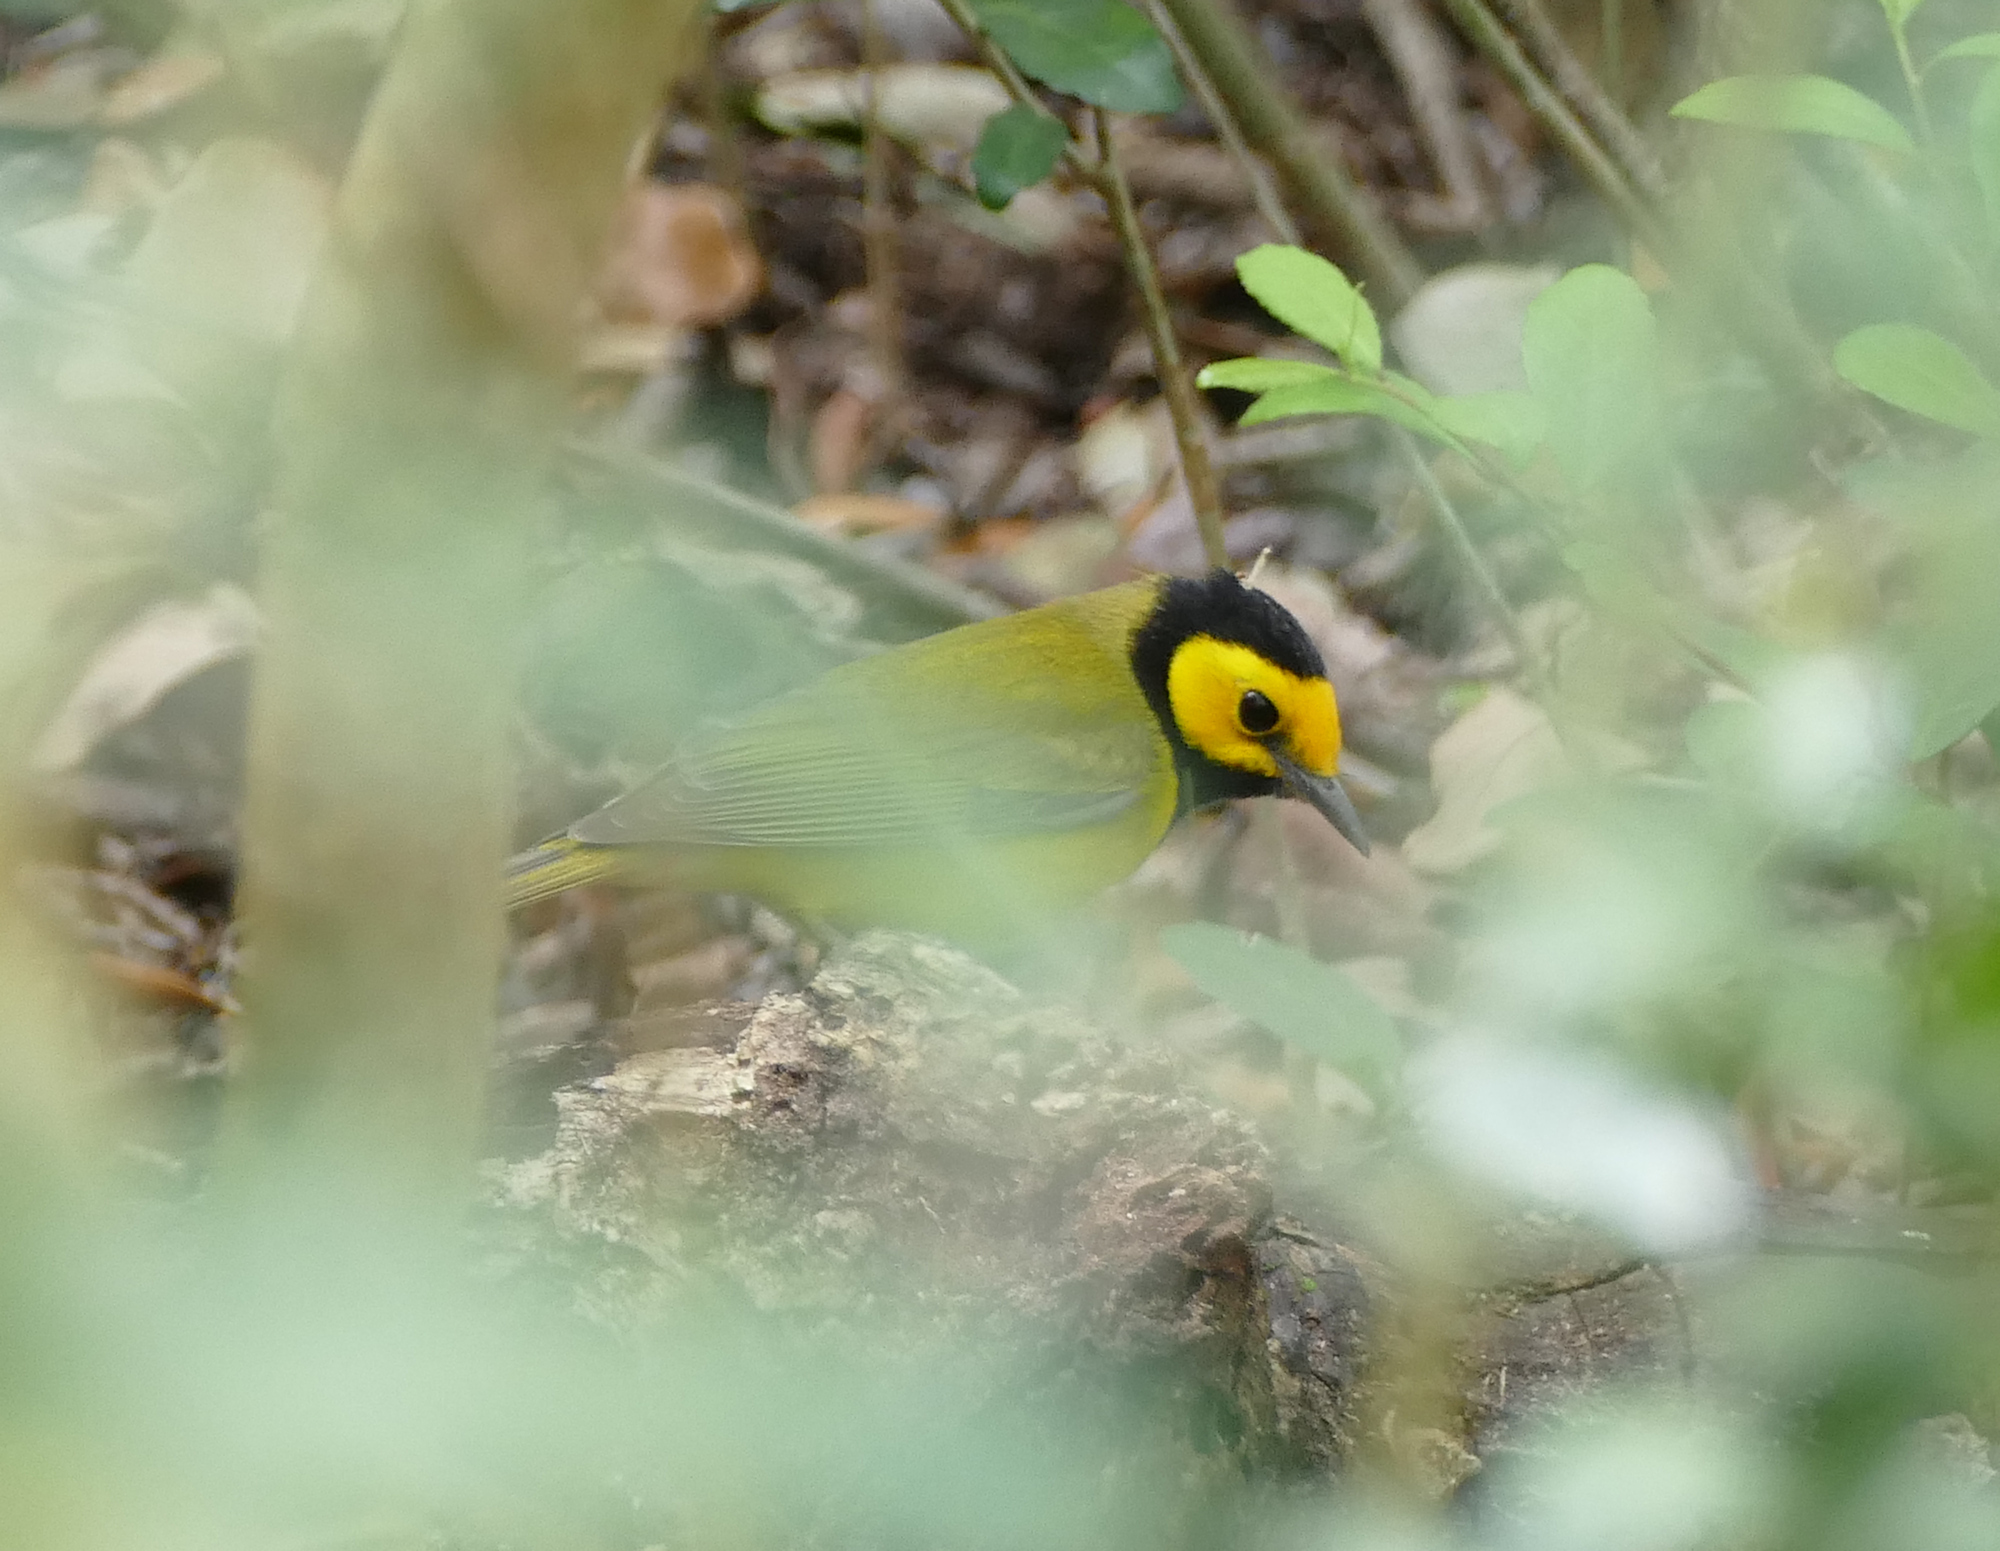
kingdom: Animalia
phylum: Chordata
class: Aves
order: Passeriformes
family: Parulidae
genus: Setophaga
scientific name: Setophaga citrina
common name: Hooded warbler
